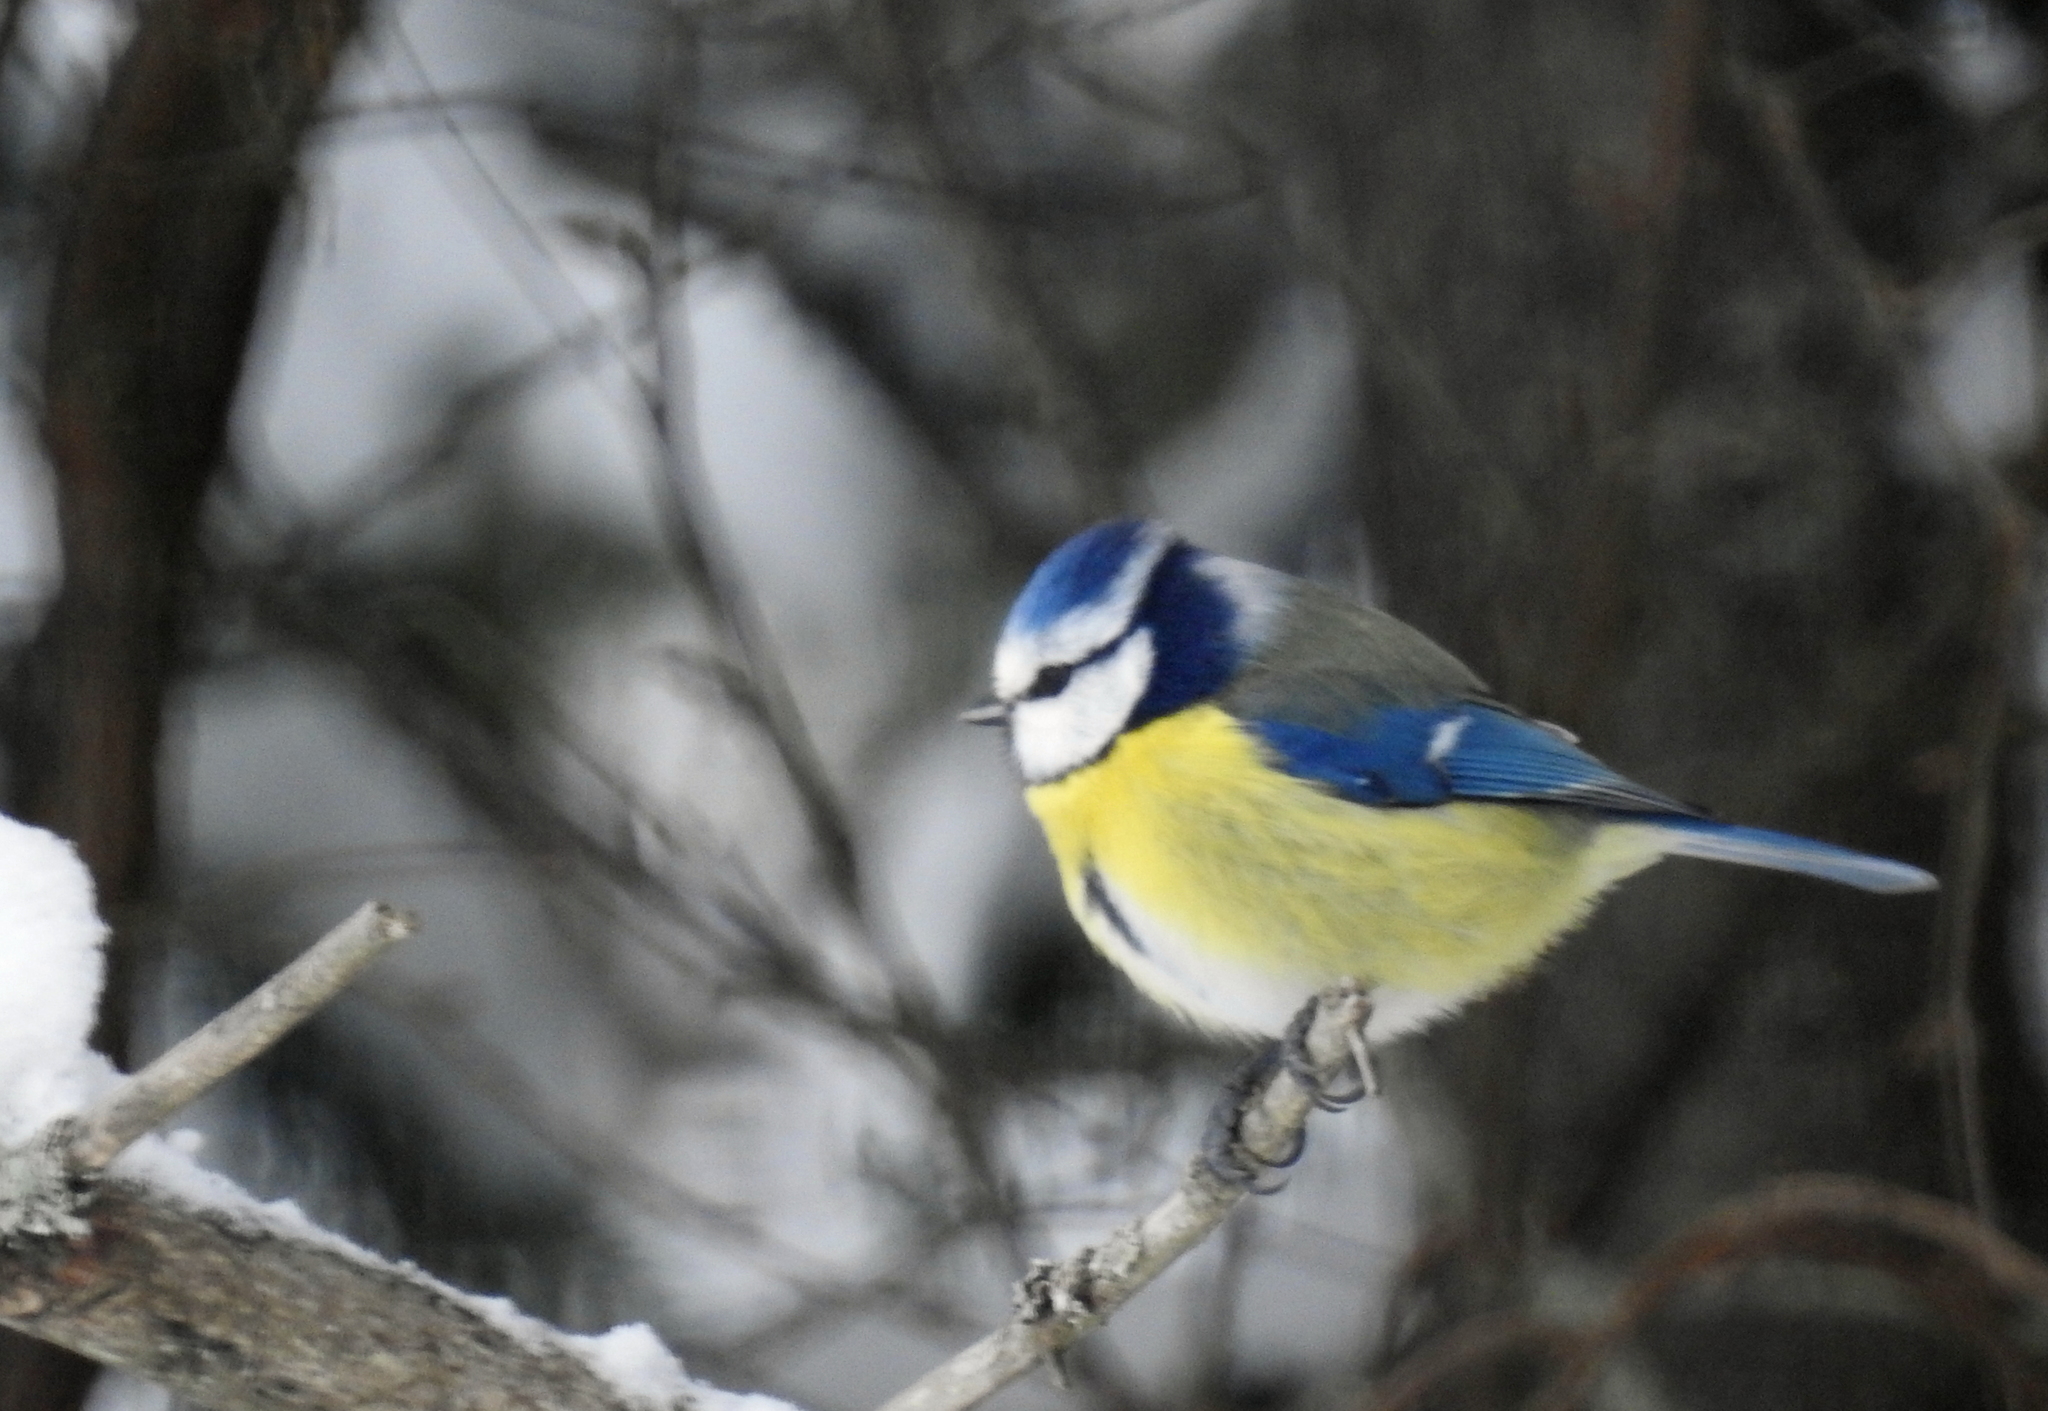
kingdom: Animalia
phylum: Chordata
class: Aves
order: Passeriformes
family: Paridae
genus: Cyanistes
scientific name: Cyanistes caeruleus
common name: Eurasian blue tit
